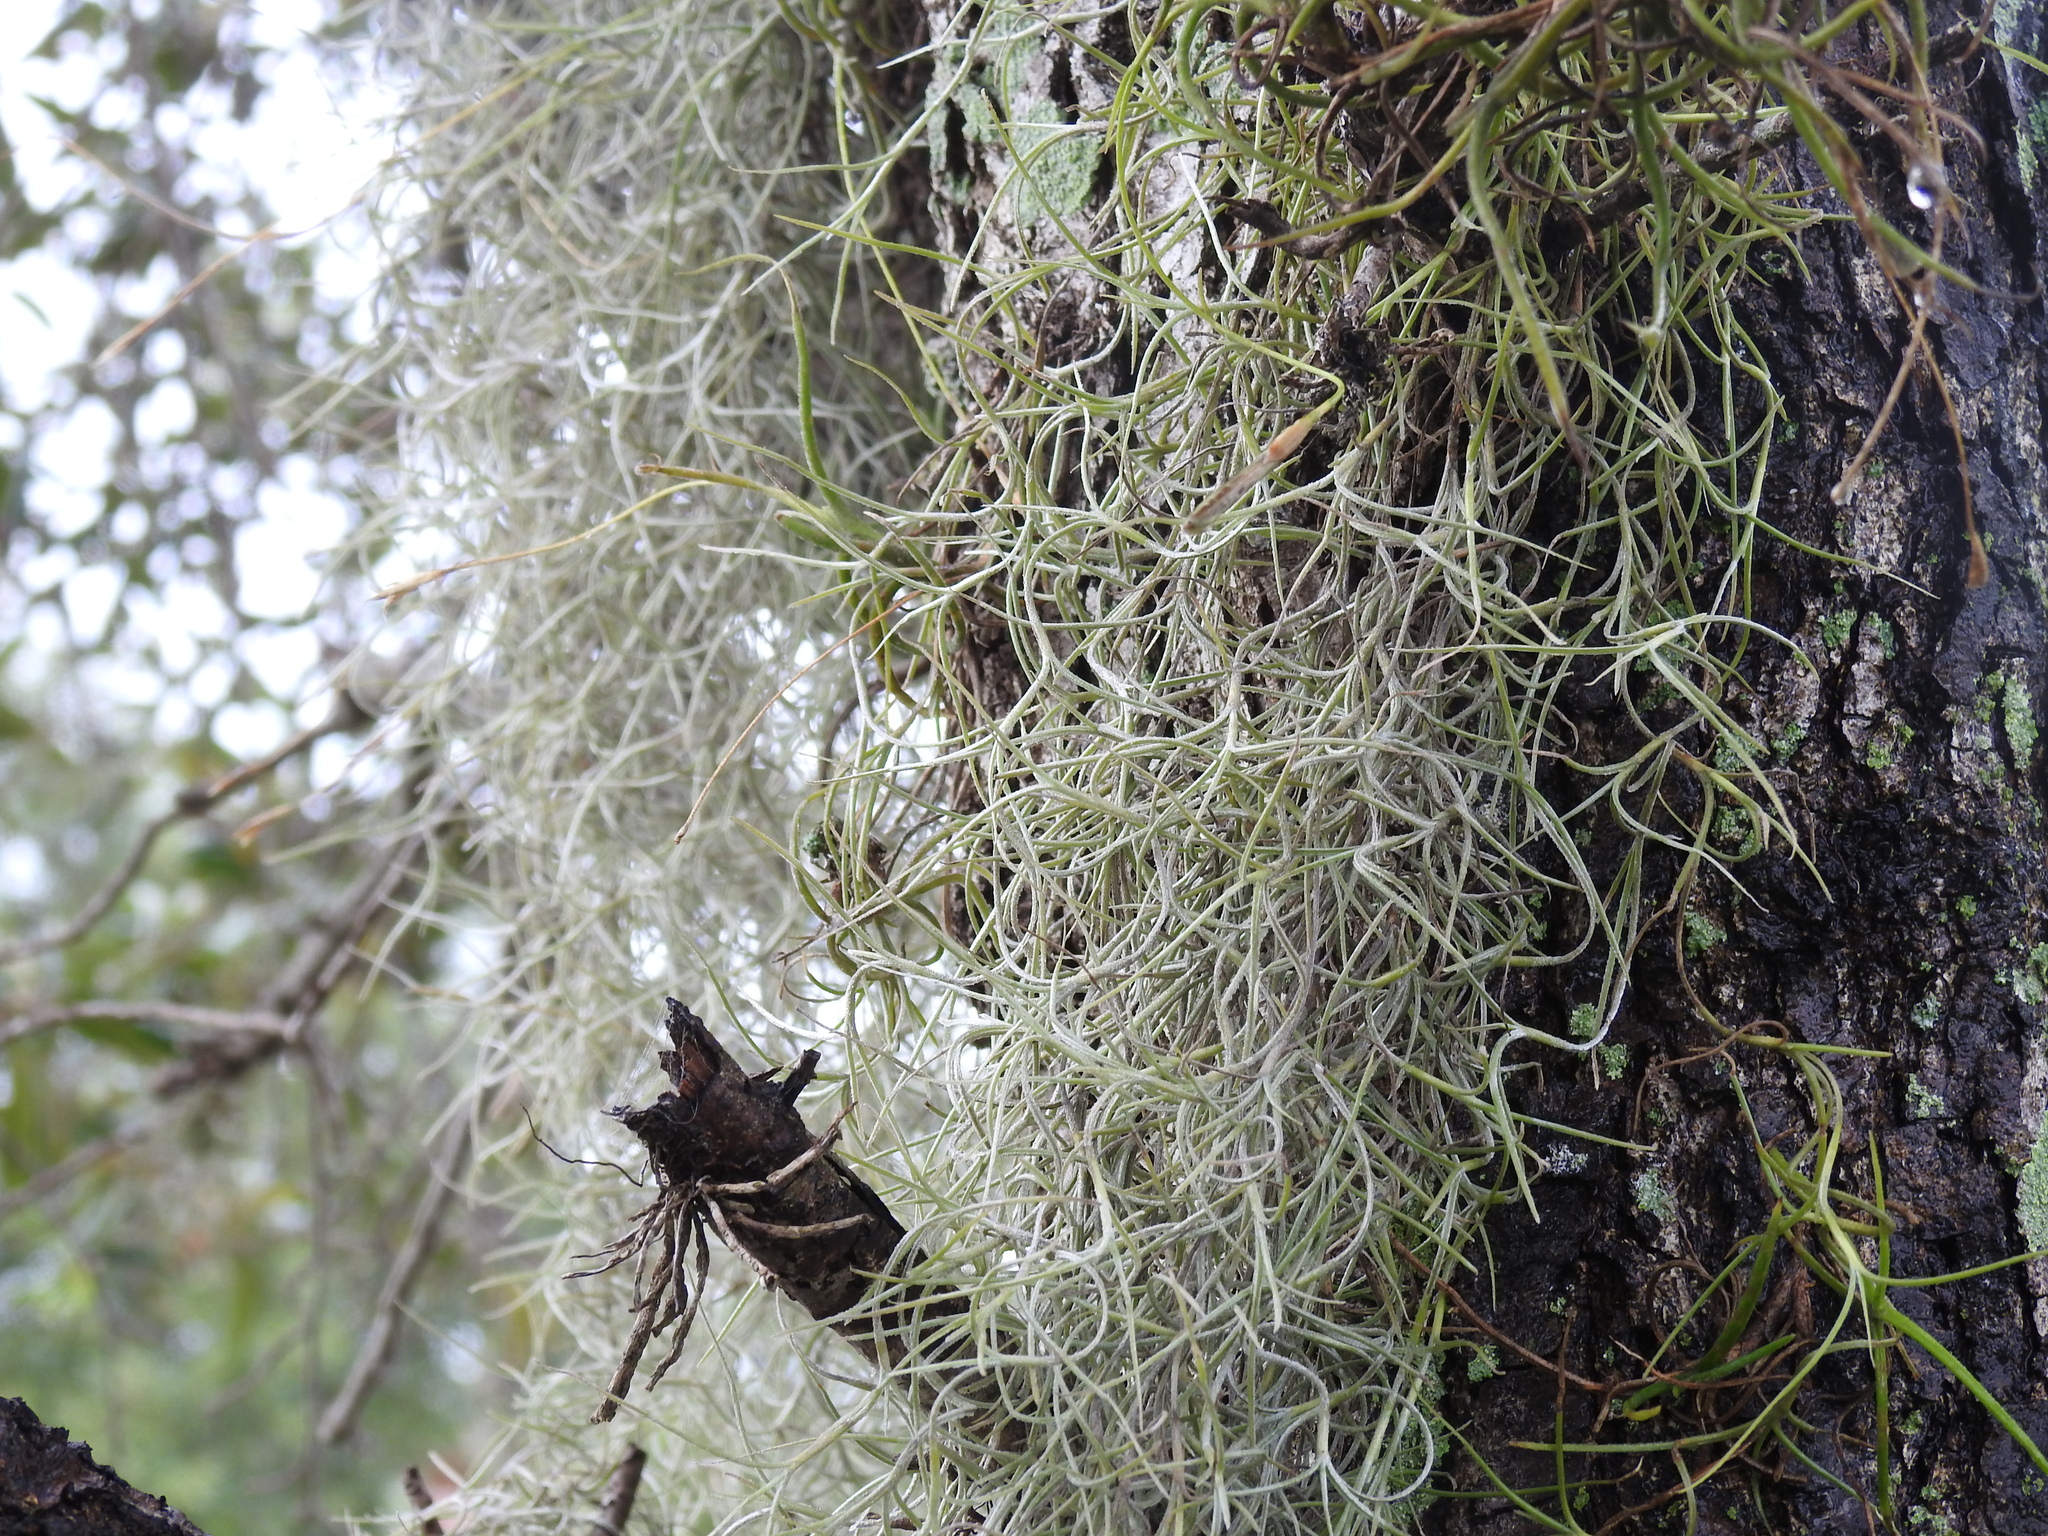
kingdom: Plantae
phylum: Tracheophyta
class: Liliopsida
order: Poales
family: Bromeliaceae
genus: Tillandsia
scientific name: Tillandsia usneoides
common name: Spanish moss
